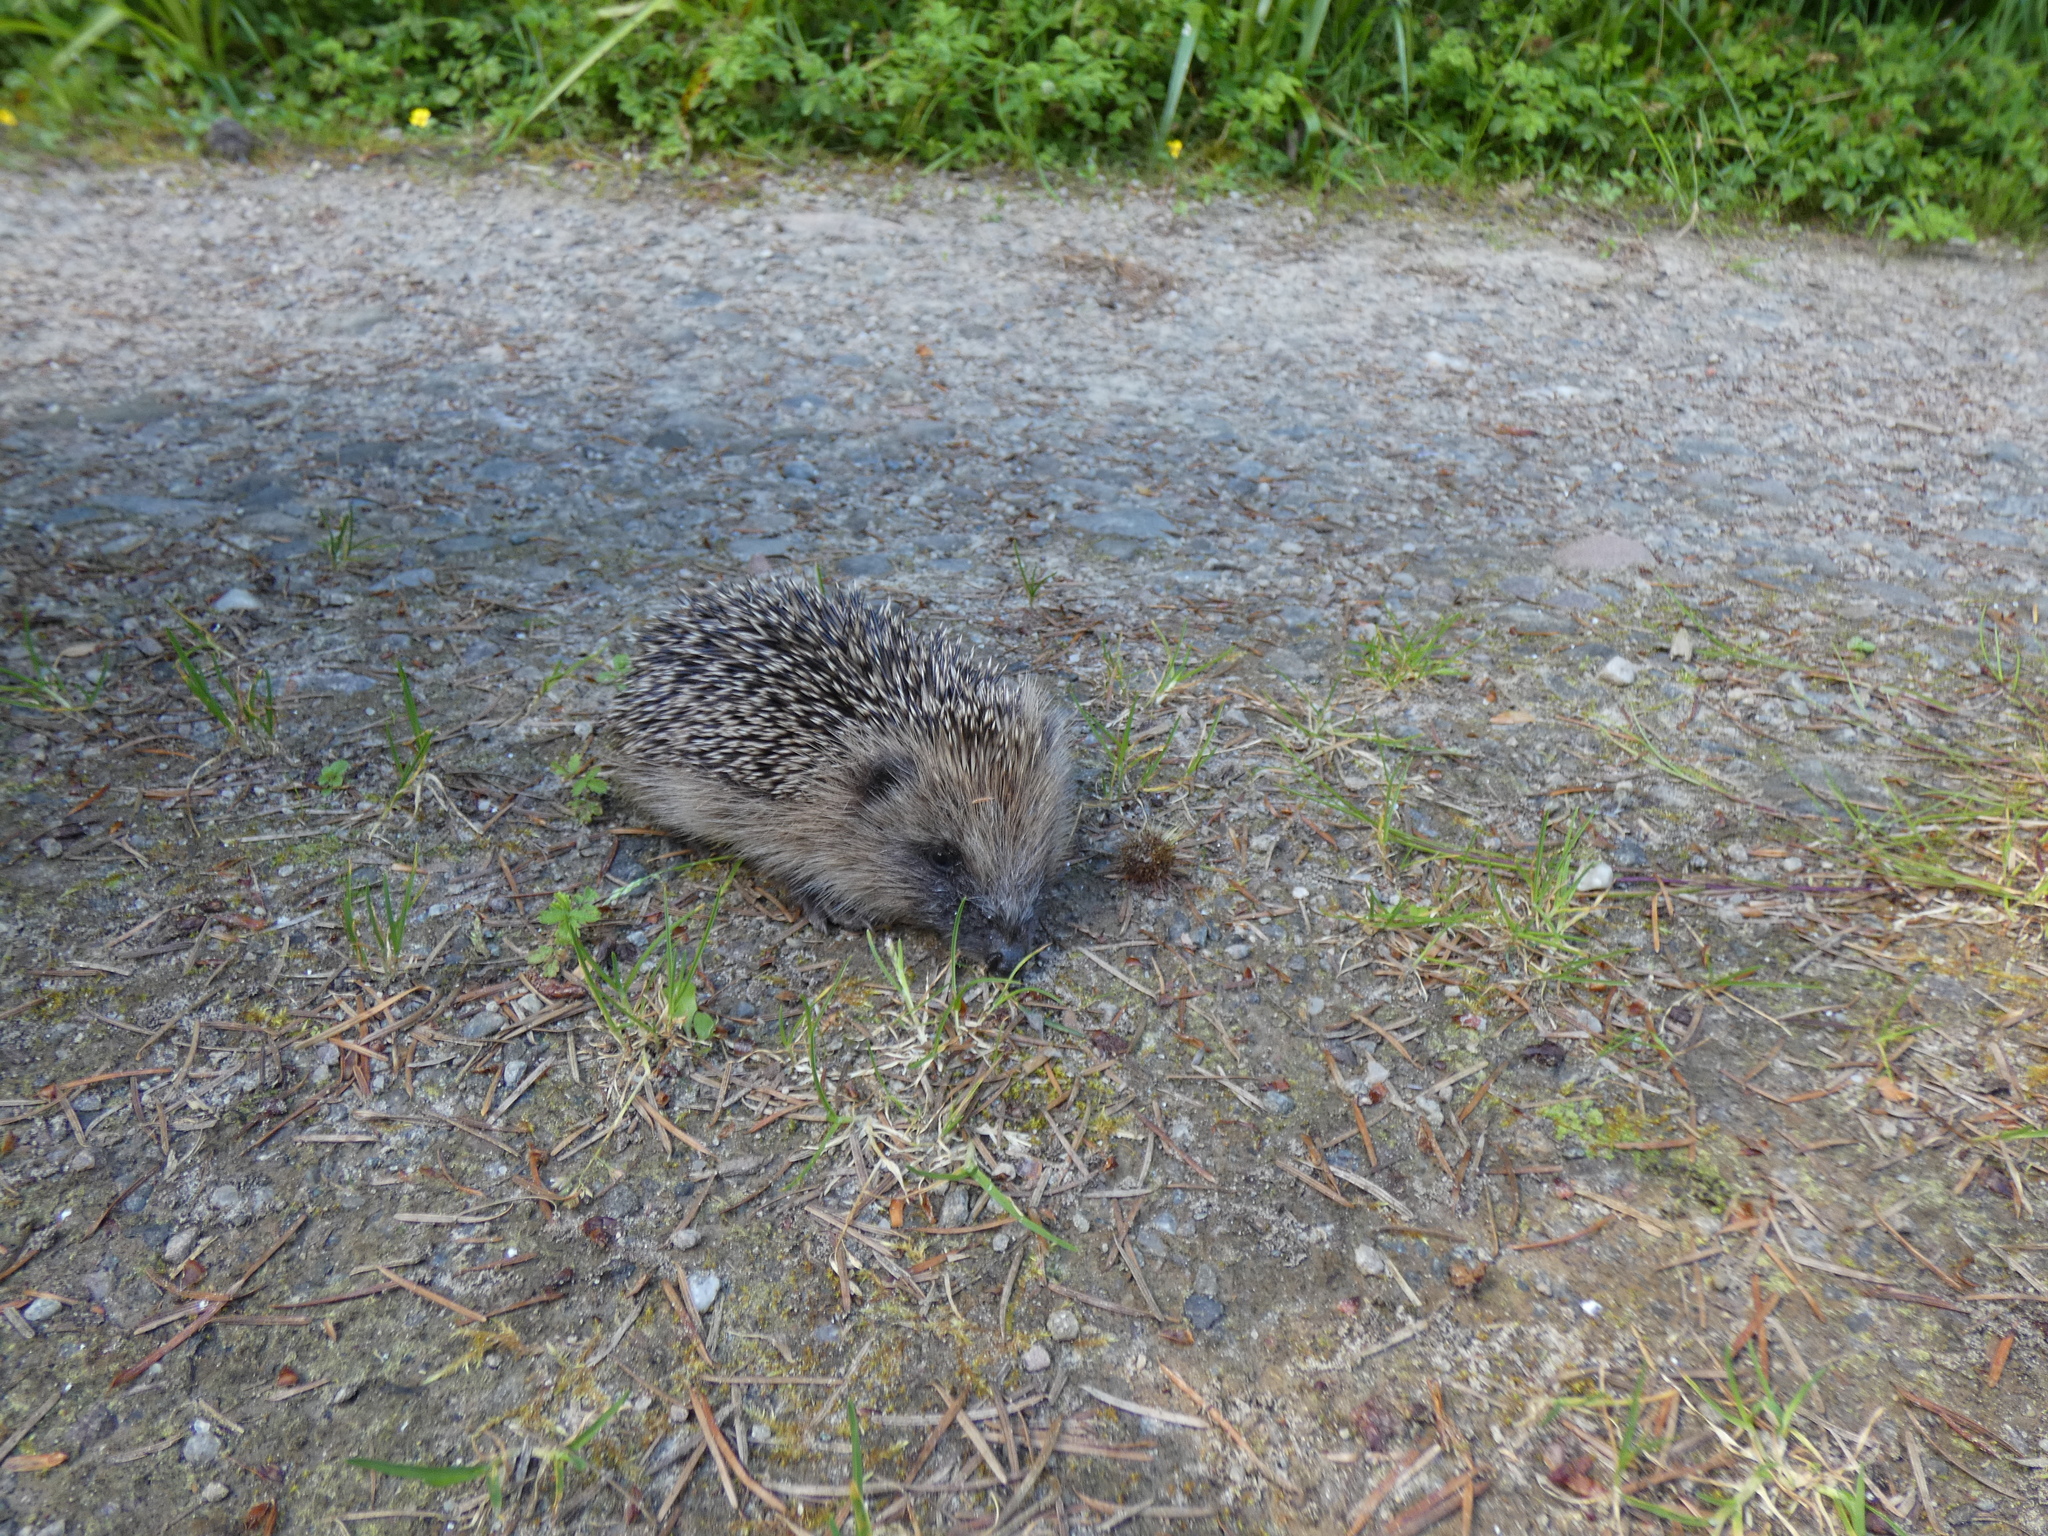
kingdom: Animalia
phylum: Chordata
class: Mammalia
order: Erinaceomorpha
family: Erinaceidae
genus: Erinaceus
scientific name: Erinaceus europaeus
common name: West european hedgehog
